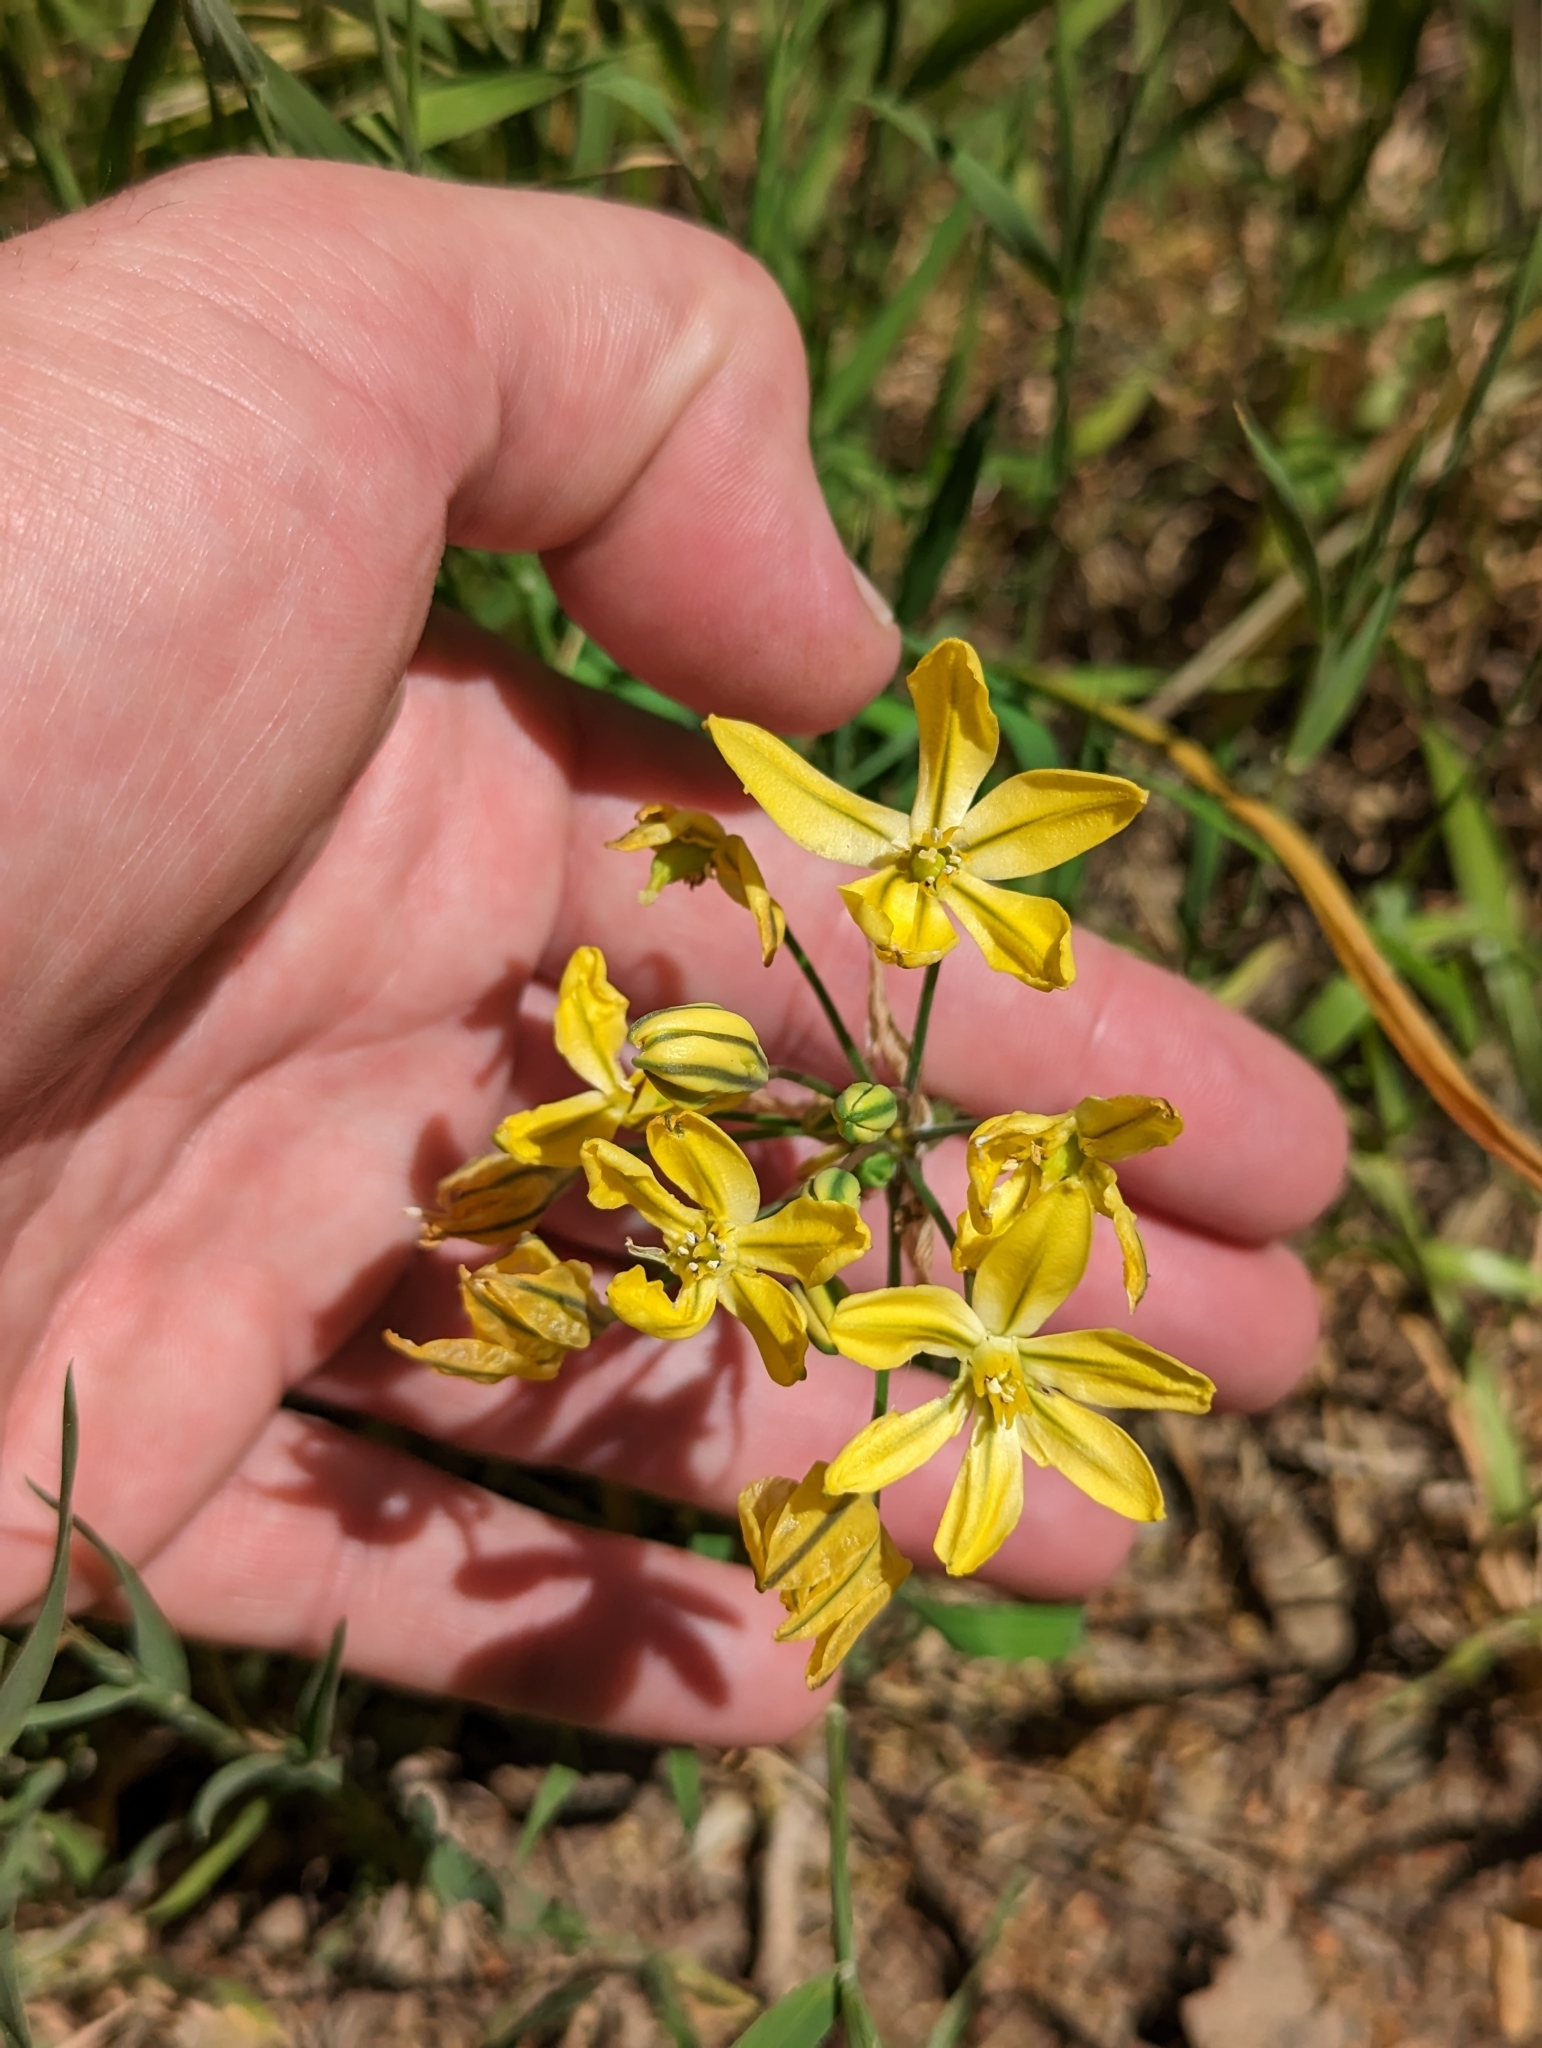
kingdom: Plantae
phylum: Tracheophyta
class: Liliopsida
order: Asparagales
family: Asparagaceae
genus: Triteleia
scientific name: Triteleia ixioides
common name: Yellow-brodiaea
